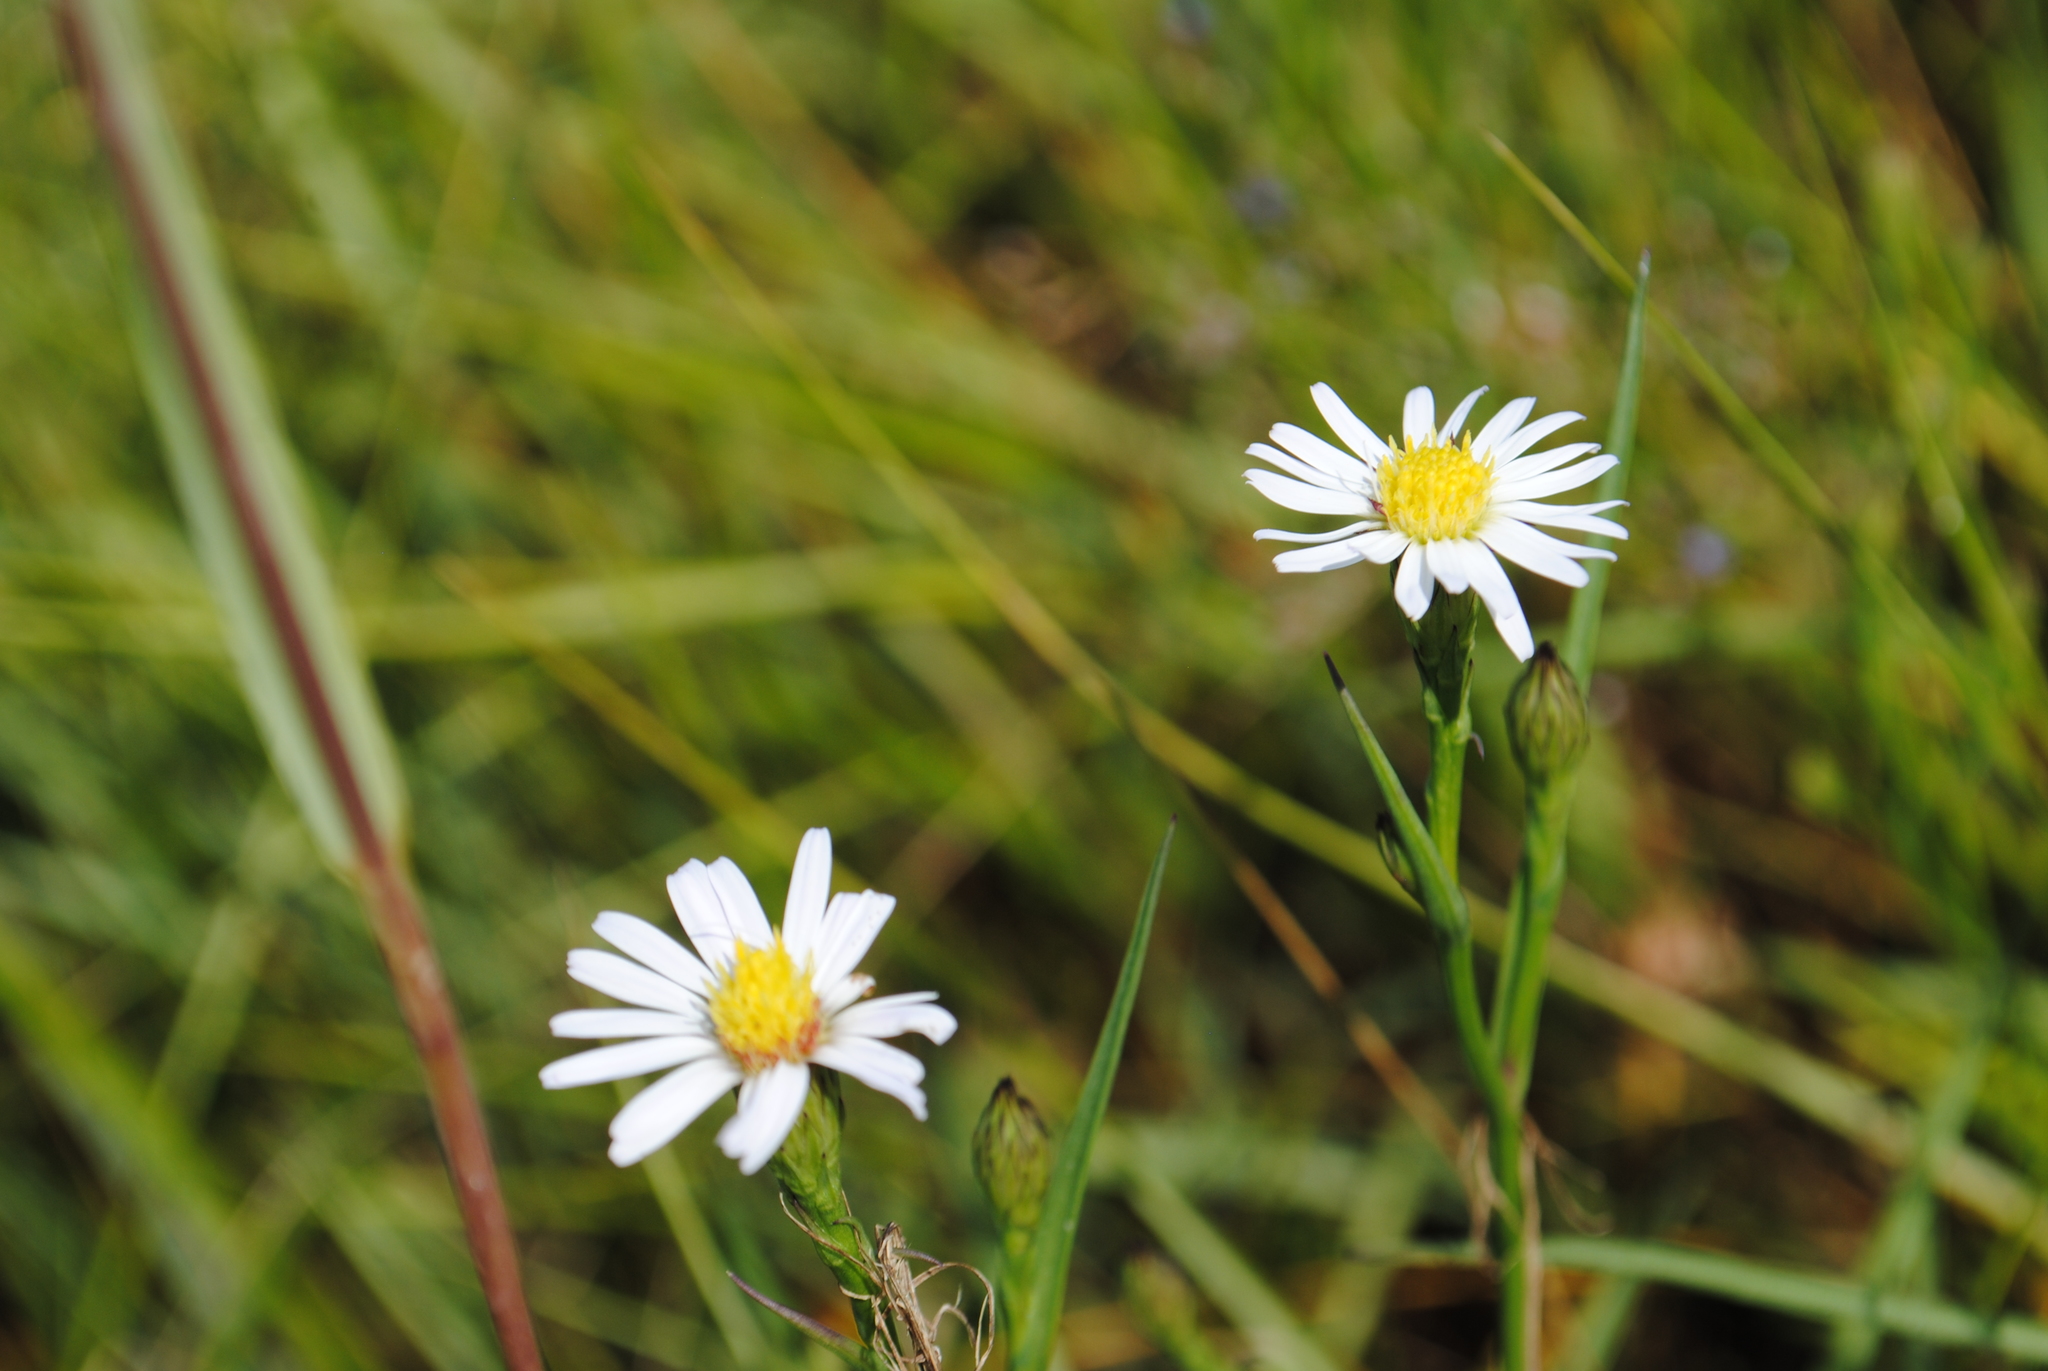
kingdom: Plantae
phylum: Tracheophyta
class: Magnoliopsida
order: Asterales
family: Asteraceae
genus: Symphyotrichum
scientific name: Symphyotrichum tenuifolium
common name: Perennial salt-marsh aster
